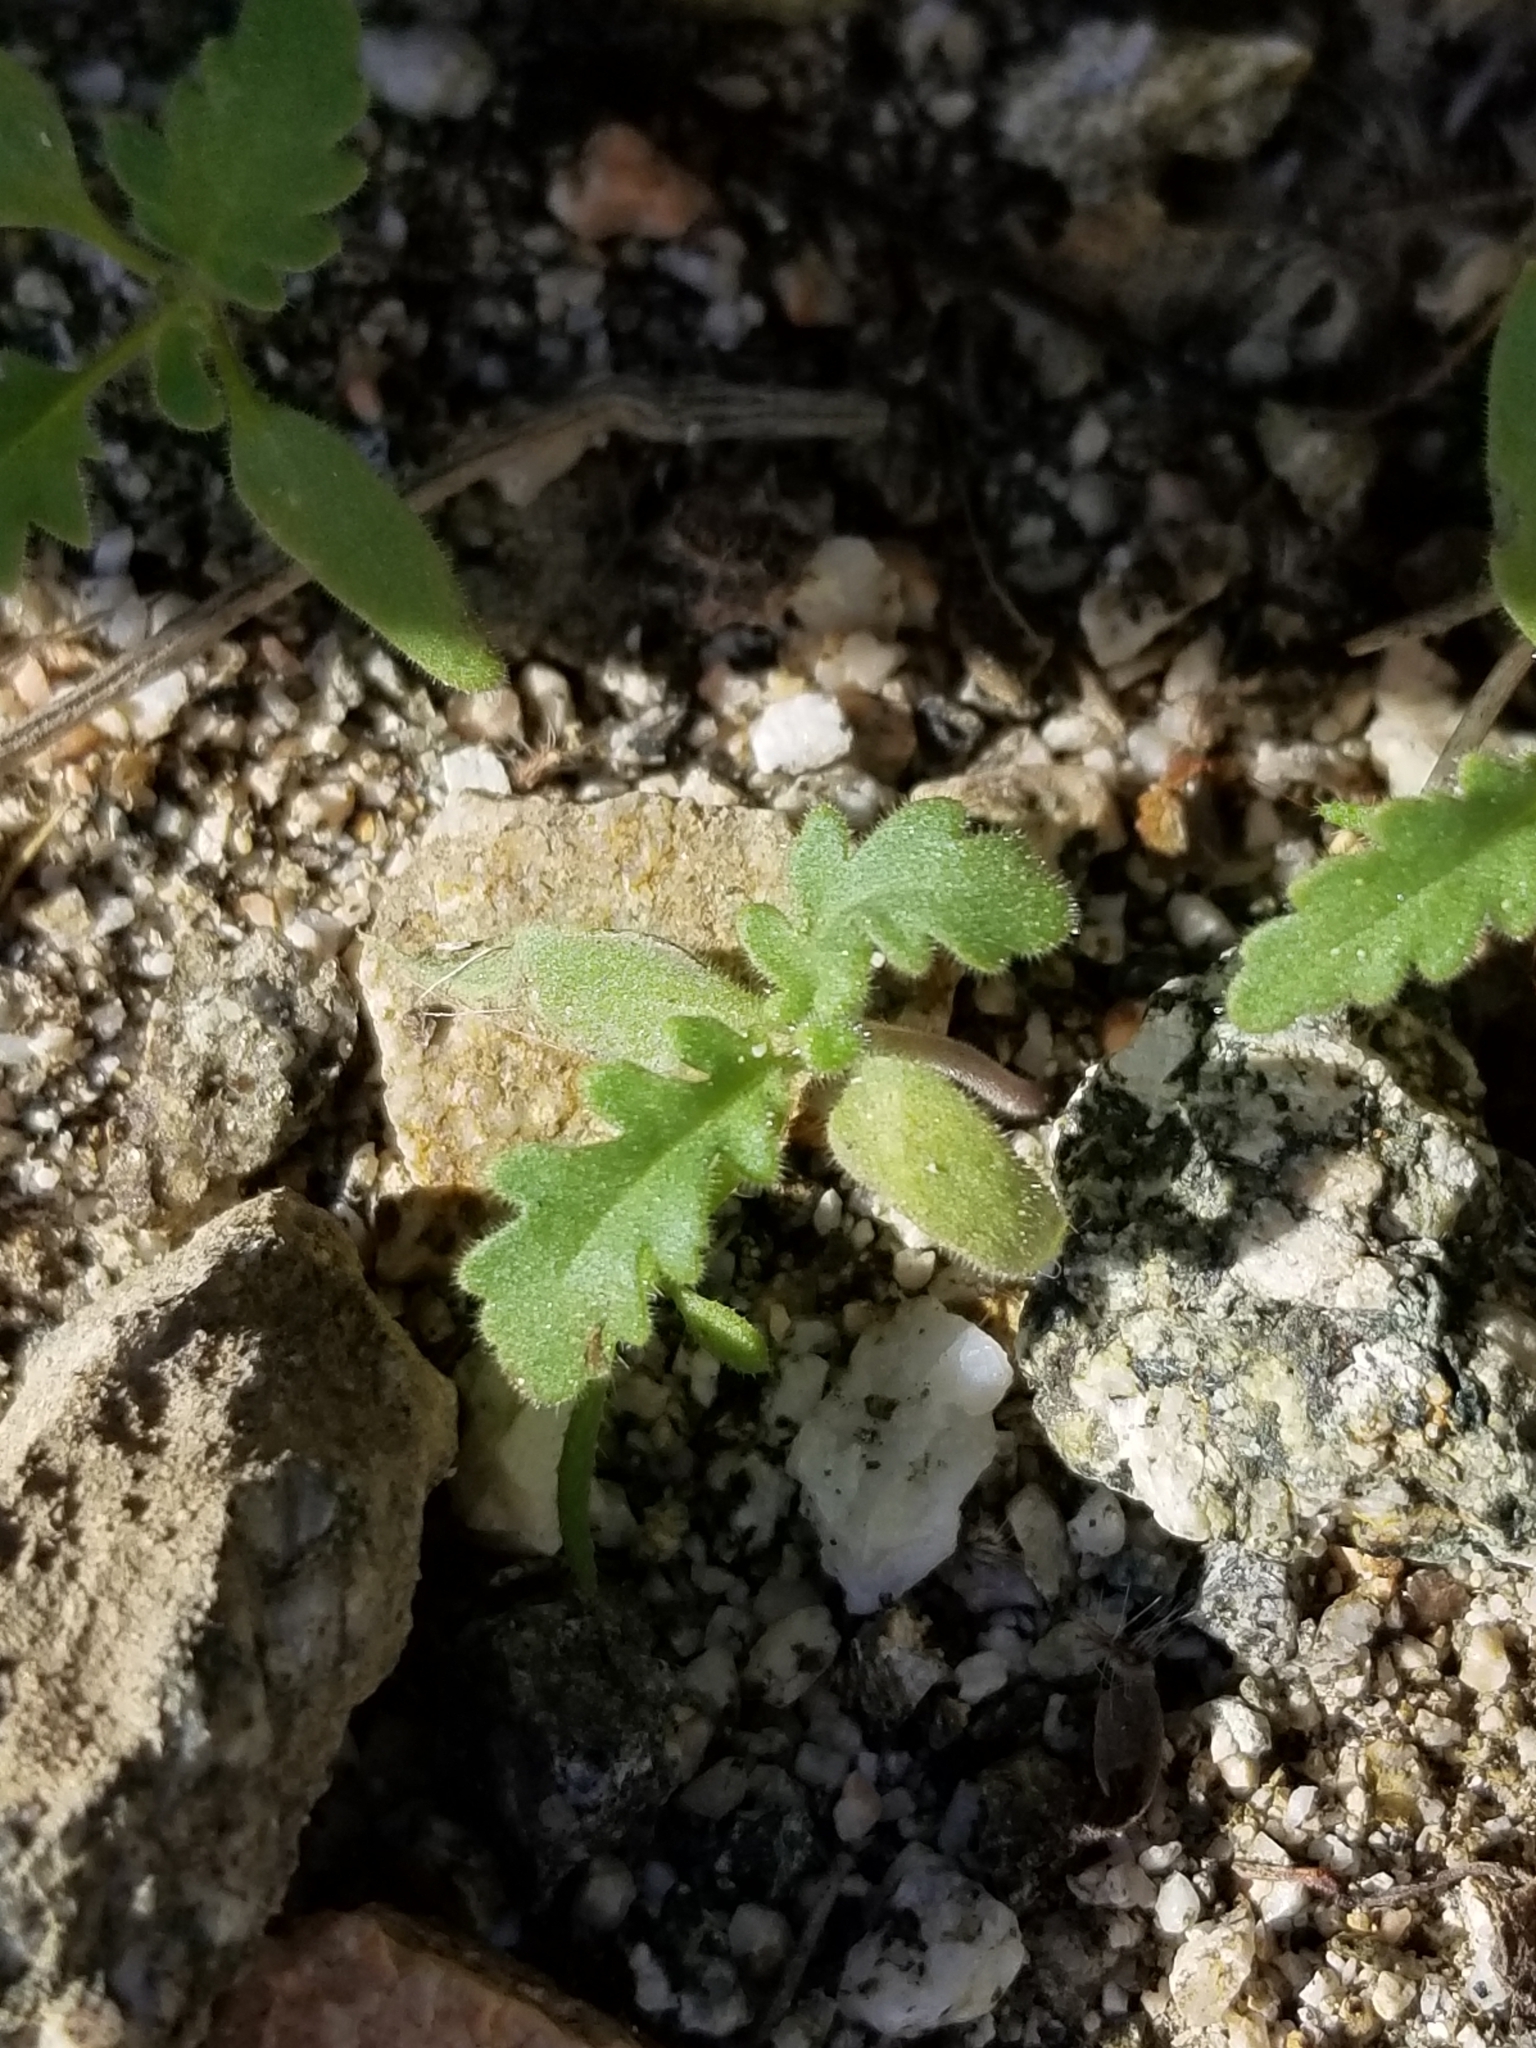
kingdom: Plantae
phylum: Tracheophyta
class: Magnoliopsida
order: Boraginales
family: Hydrophyllaceae
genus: Phacelia
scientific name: Phacelia crenulata
